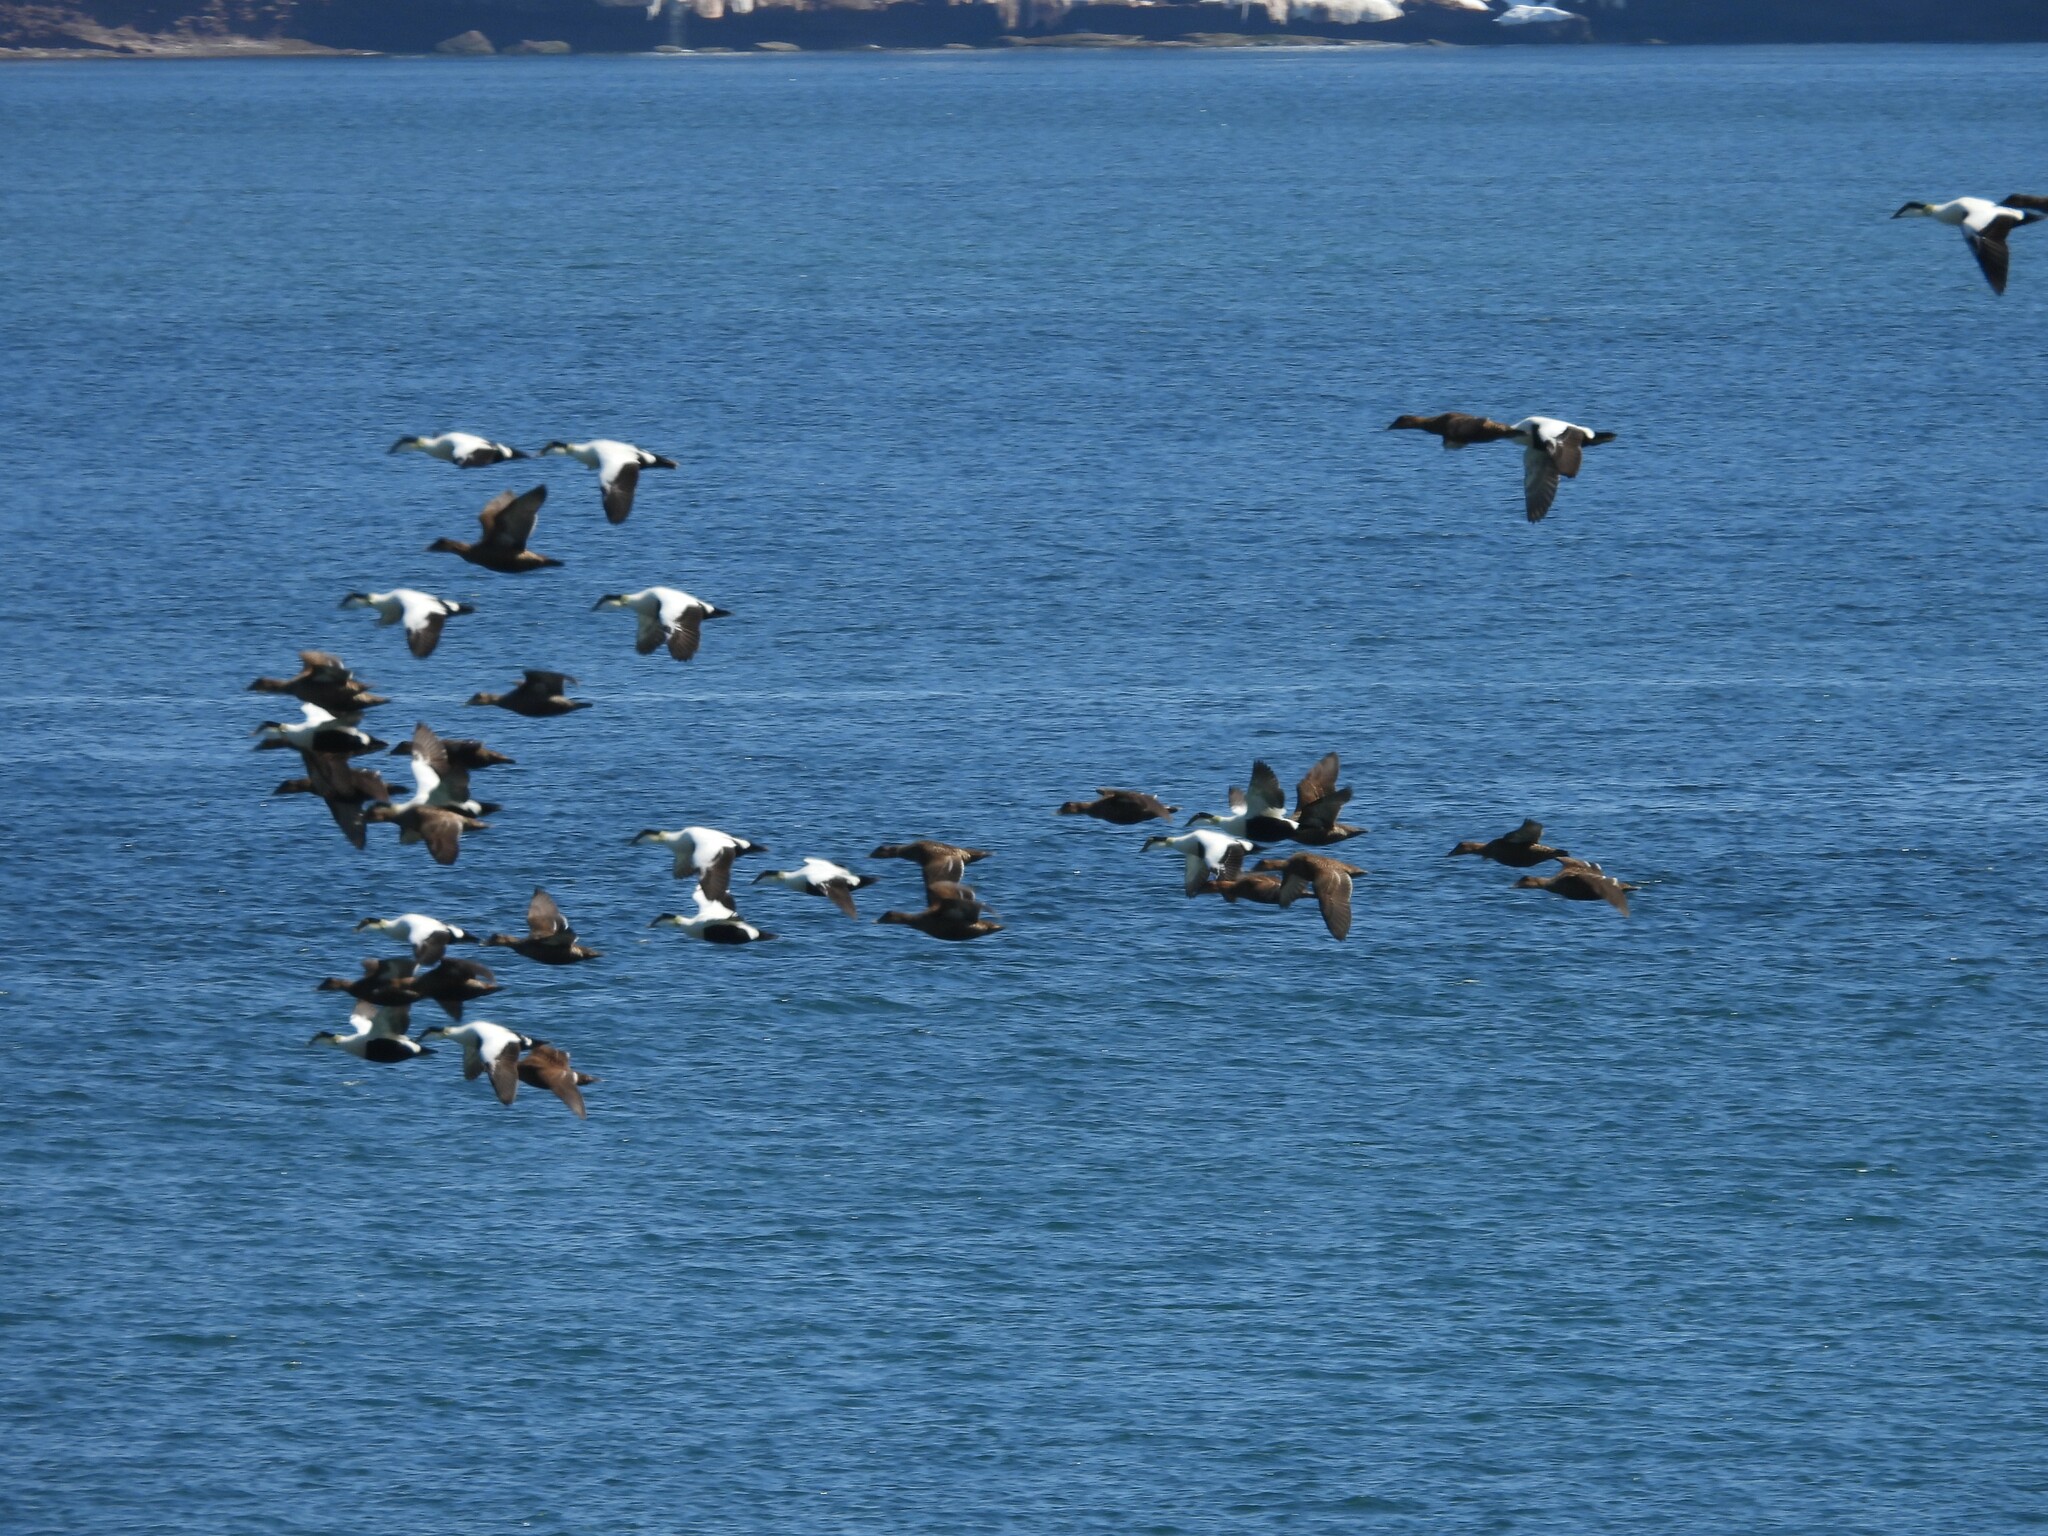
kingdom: Animalia
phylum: Chordata
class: Aves
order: Anseriformes
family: Anatidae
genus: Somateria
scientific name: Somateria mollissima
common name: Common eider
